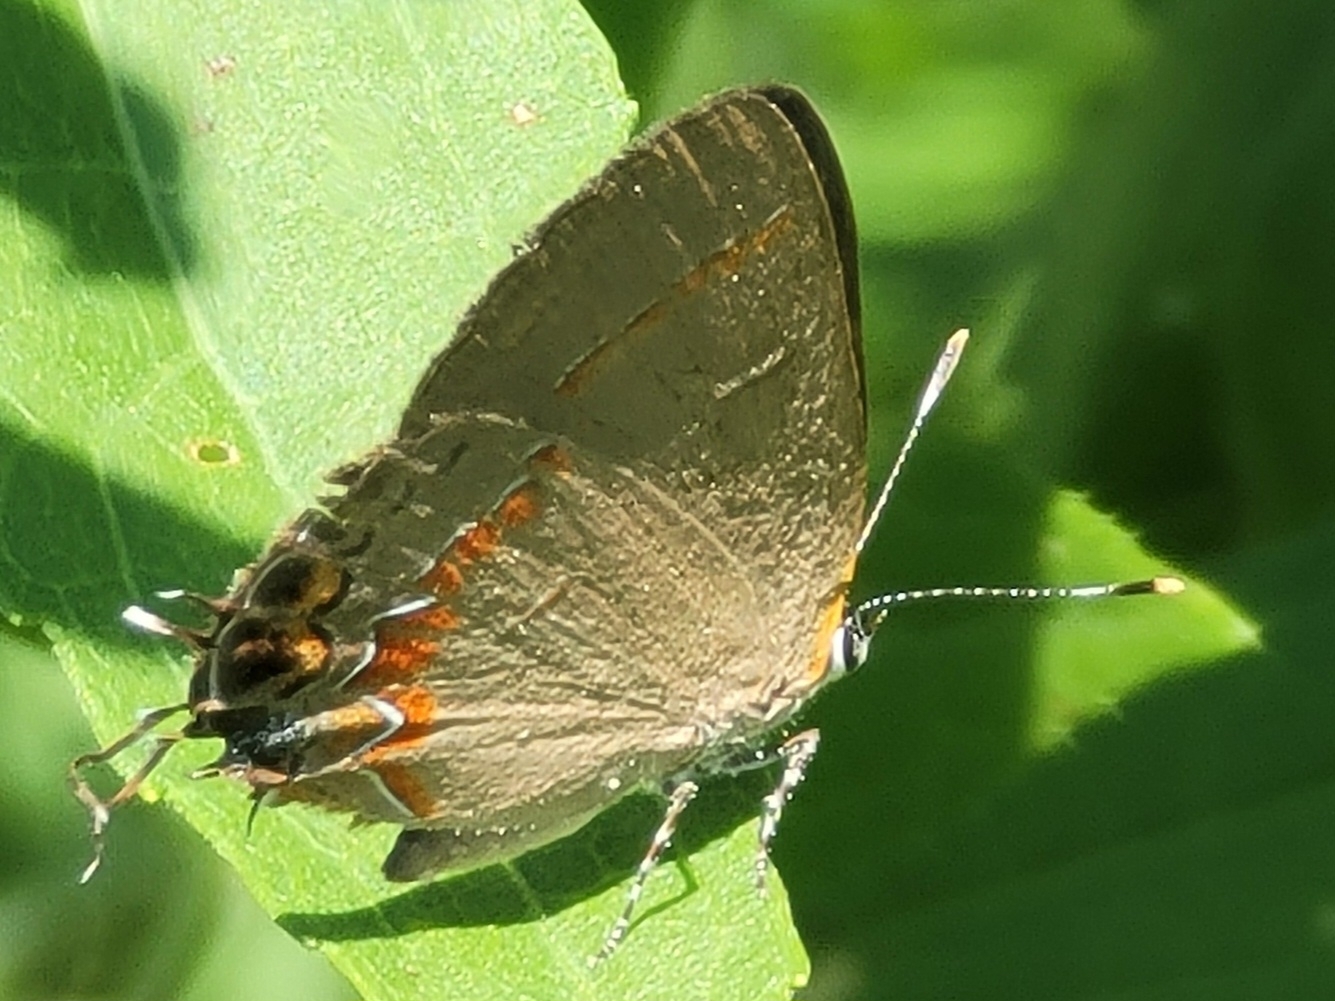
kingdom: Animalia
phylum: Arthropoda
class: Insecta
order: Lepidoptera
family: Lycaenidae
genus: Calycopis
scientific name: Calycopis cecrops
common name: Red-banded hairstreak
